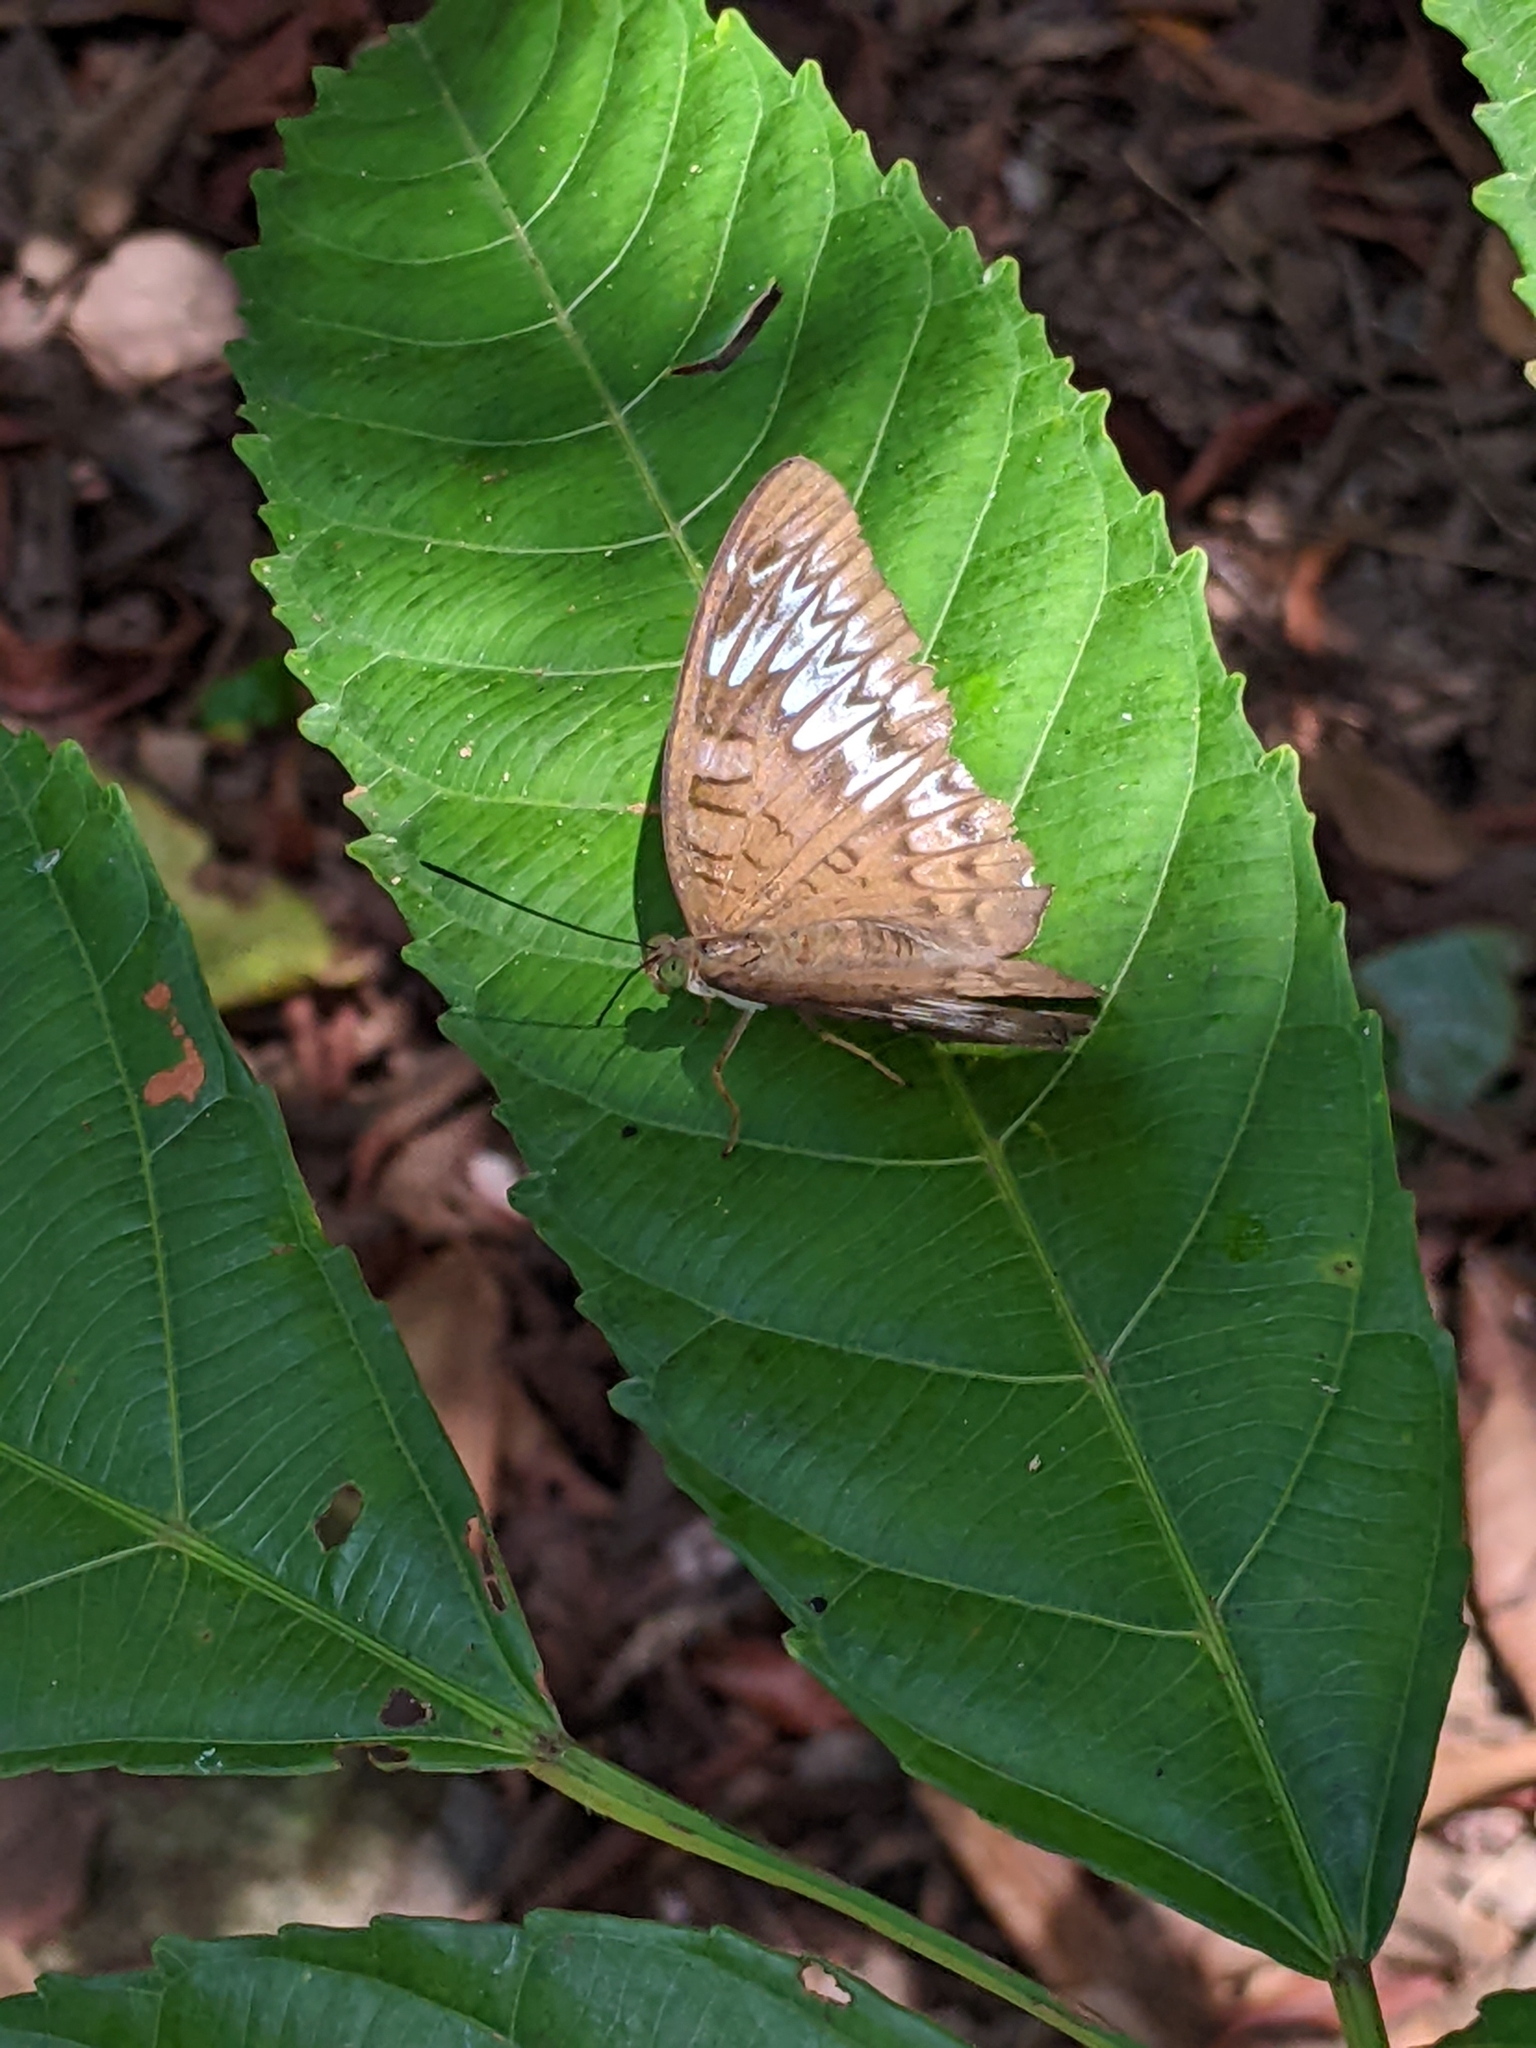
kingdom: Animalia
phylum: Arthropoda
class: Insecta
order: Lepidoptera
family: Nymphalidae
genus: Tanaecia
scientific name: Tanaecia pelea
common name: Malay viscount
